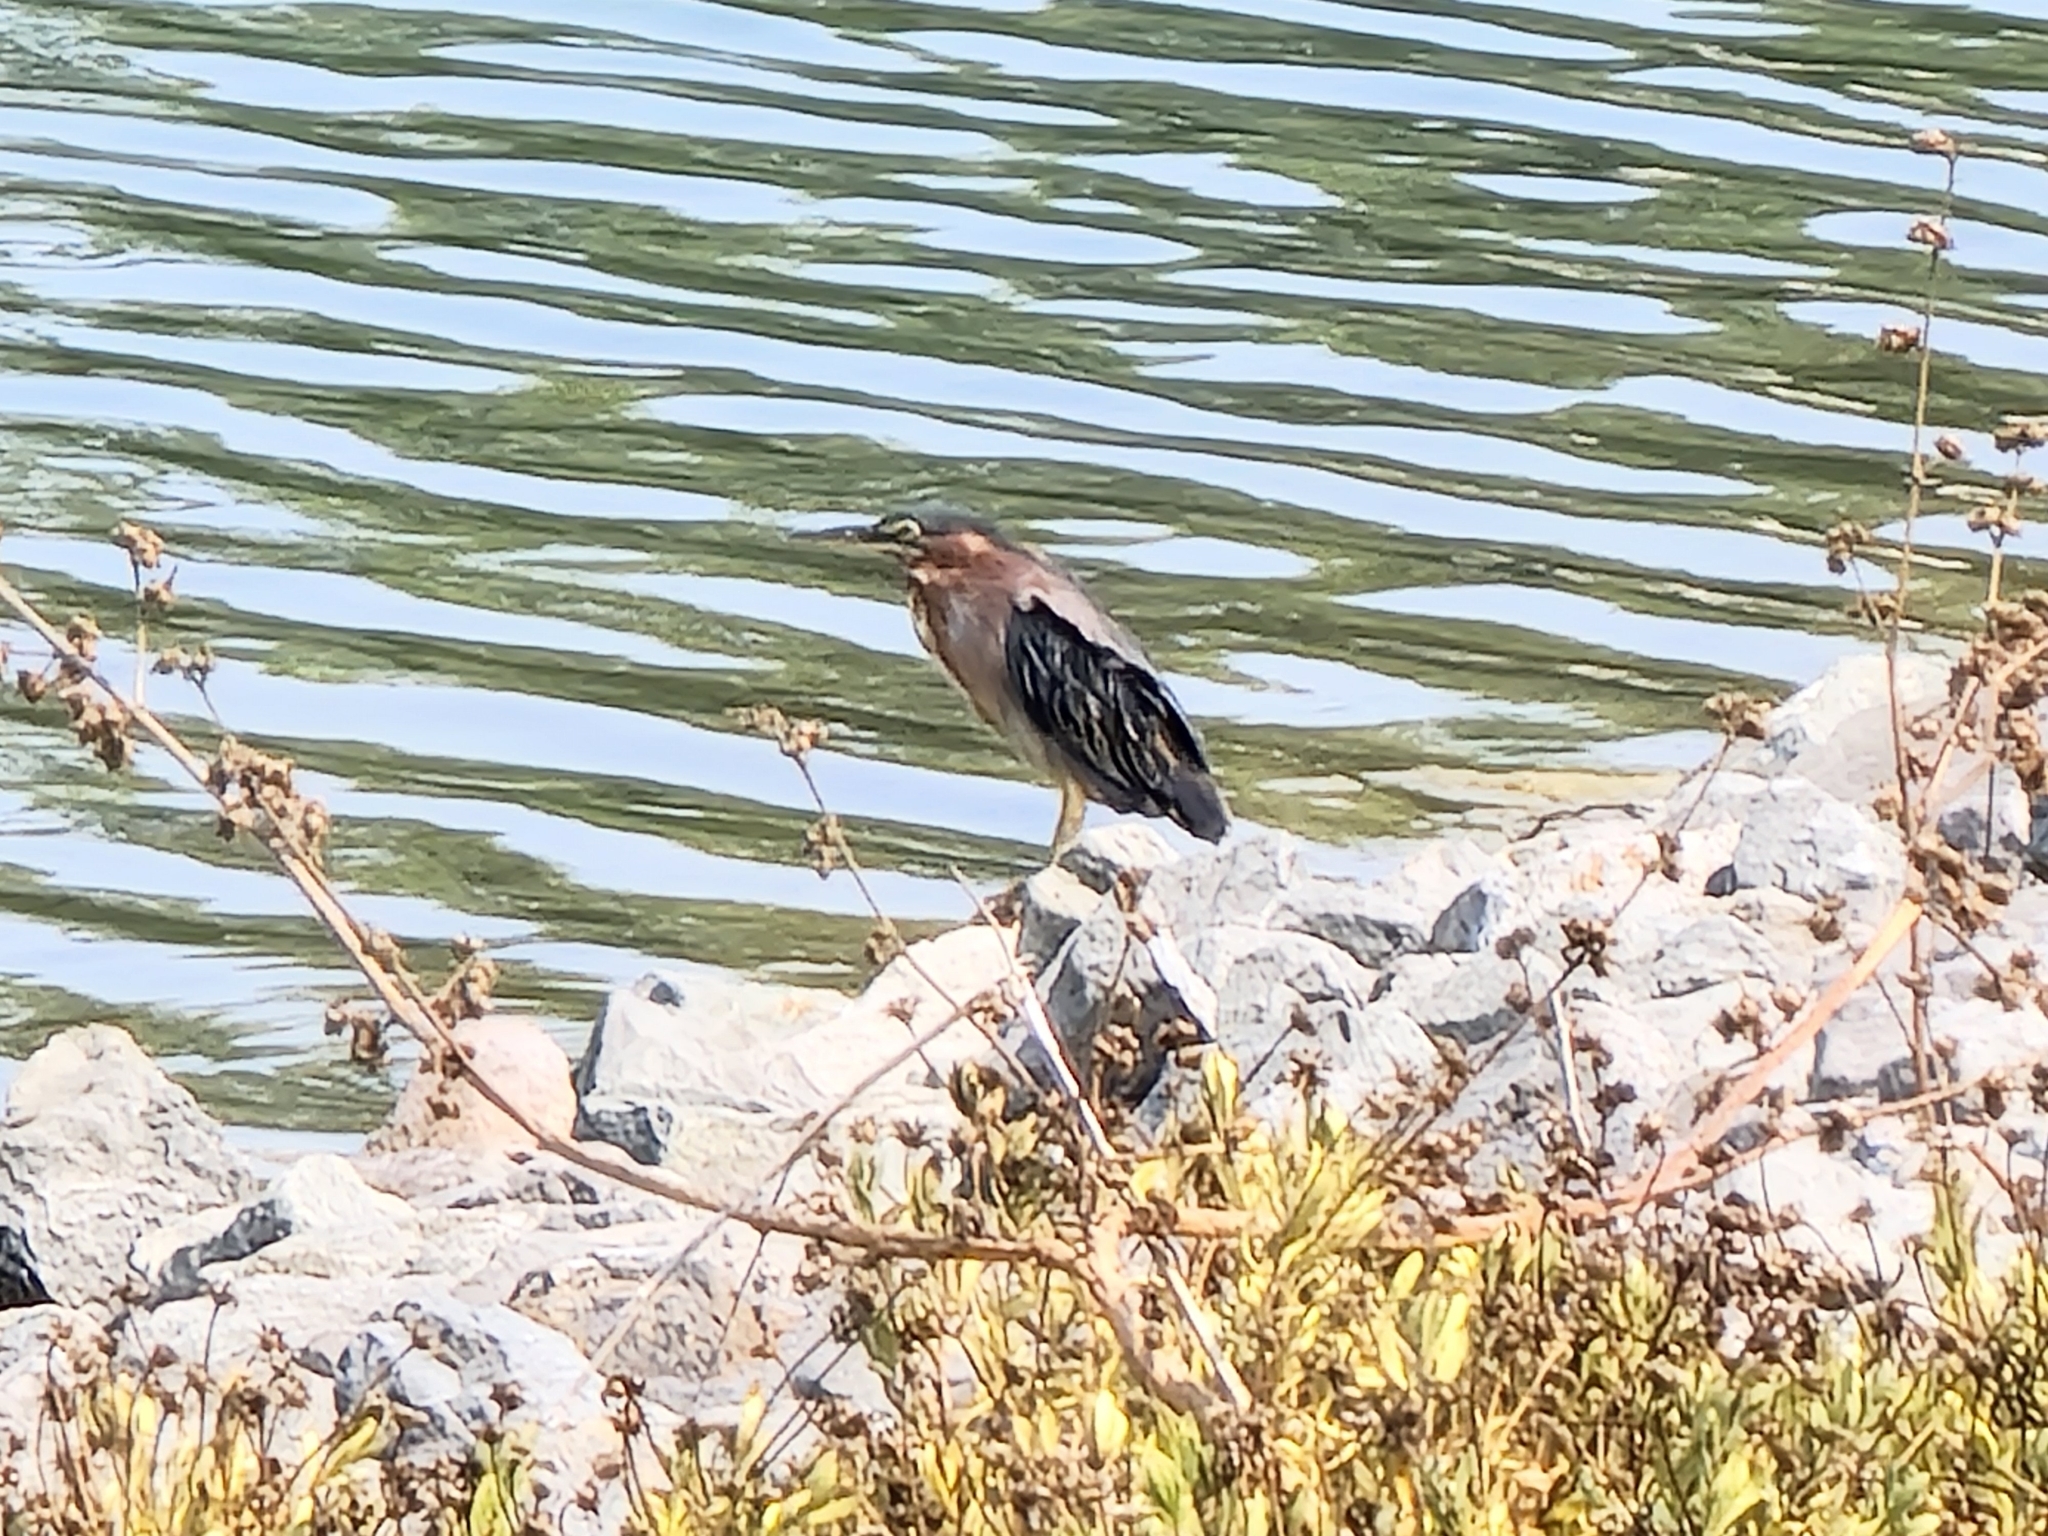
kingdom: Animalia
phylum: Chordata
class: Aves
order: Pelecaniformes
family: Ardeidae
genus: Butorides
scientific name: Butorides virescens
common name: Green heron
